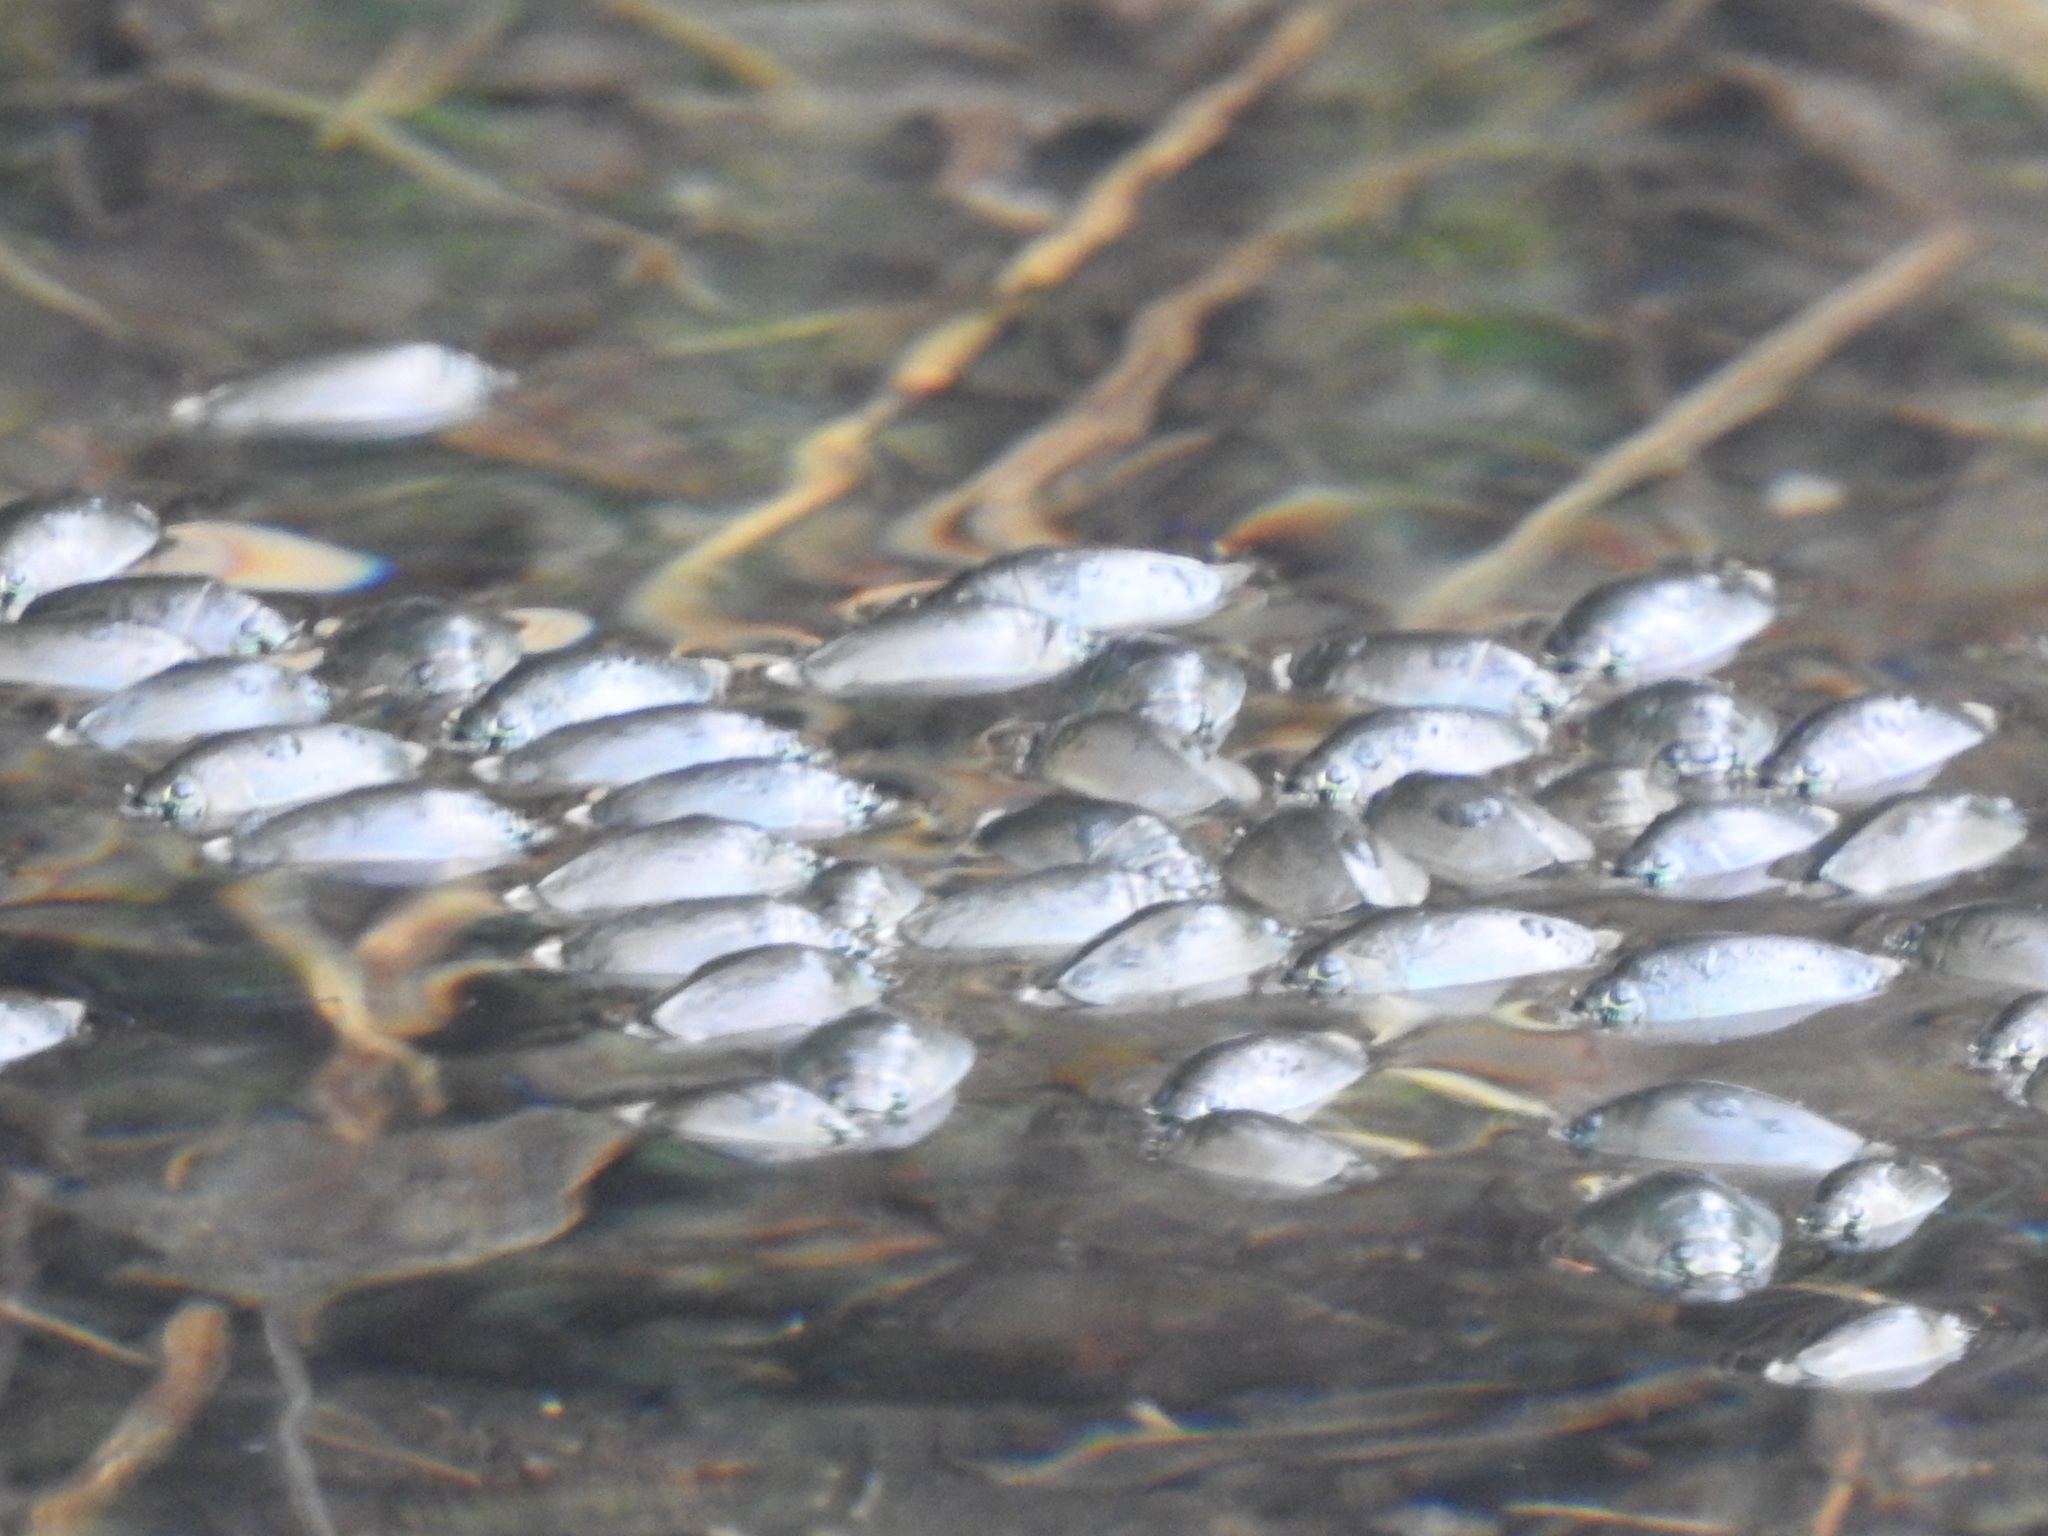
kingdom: Animalia
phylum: Arthropoda
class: Insecta
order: Coleoptera
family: Gyrinidae
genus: Dineutus
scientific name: Dineutus
